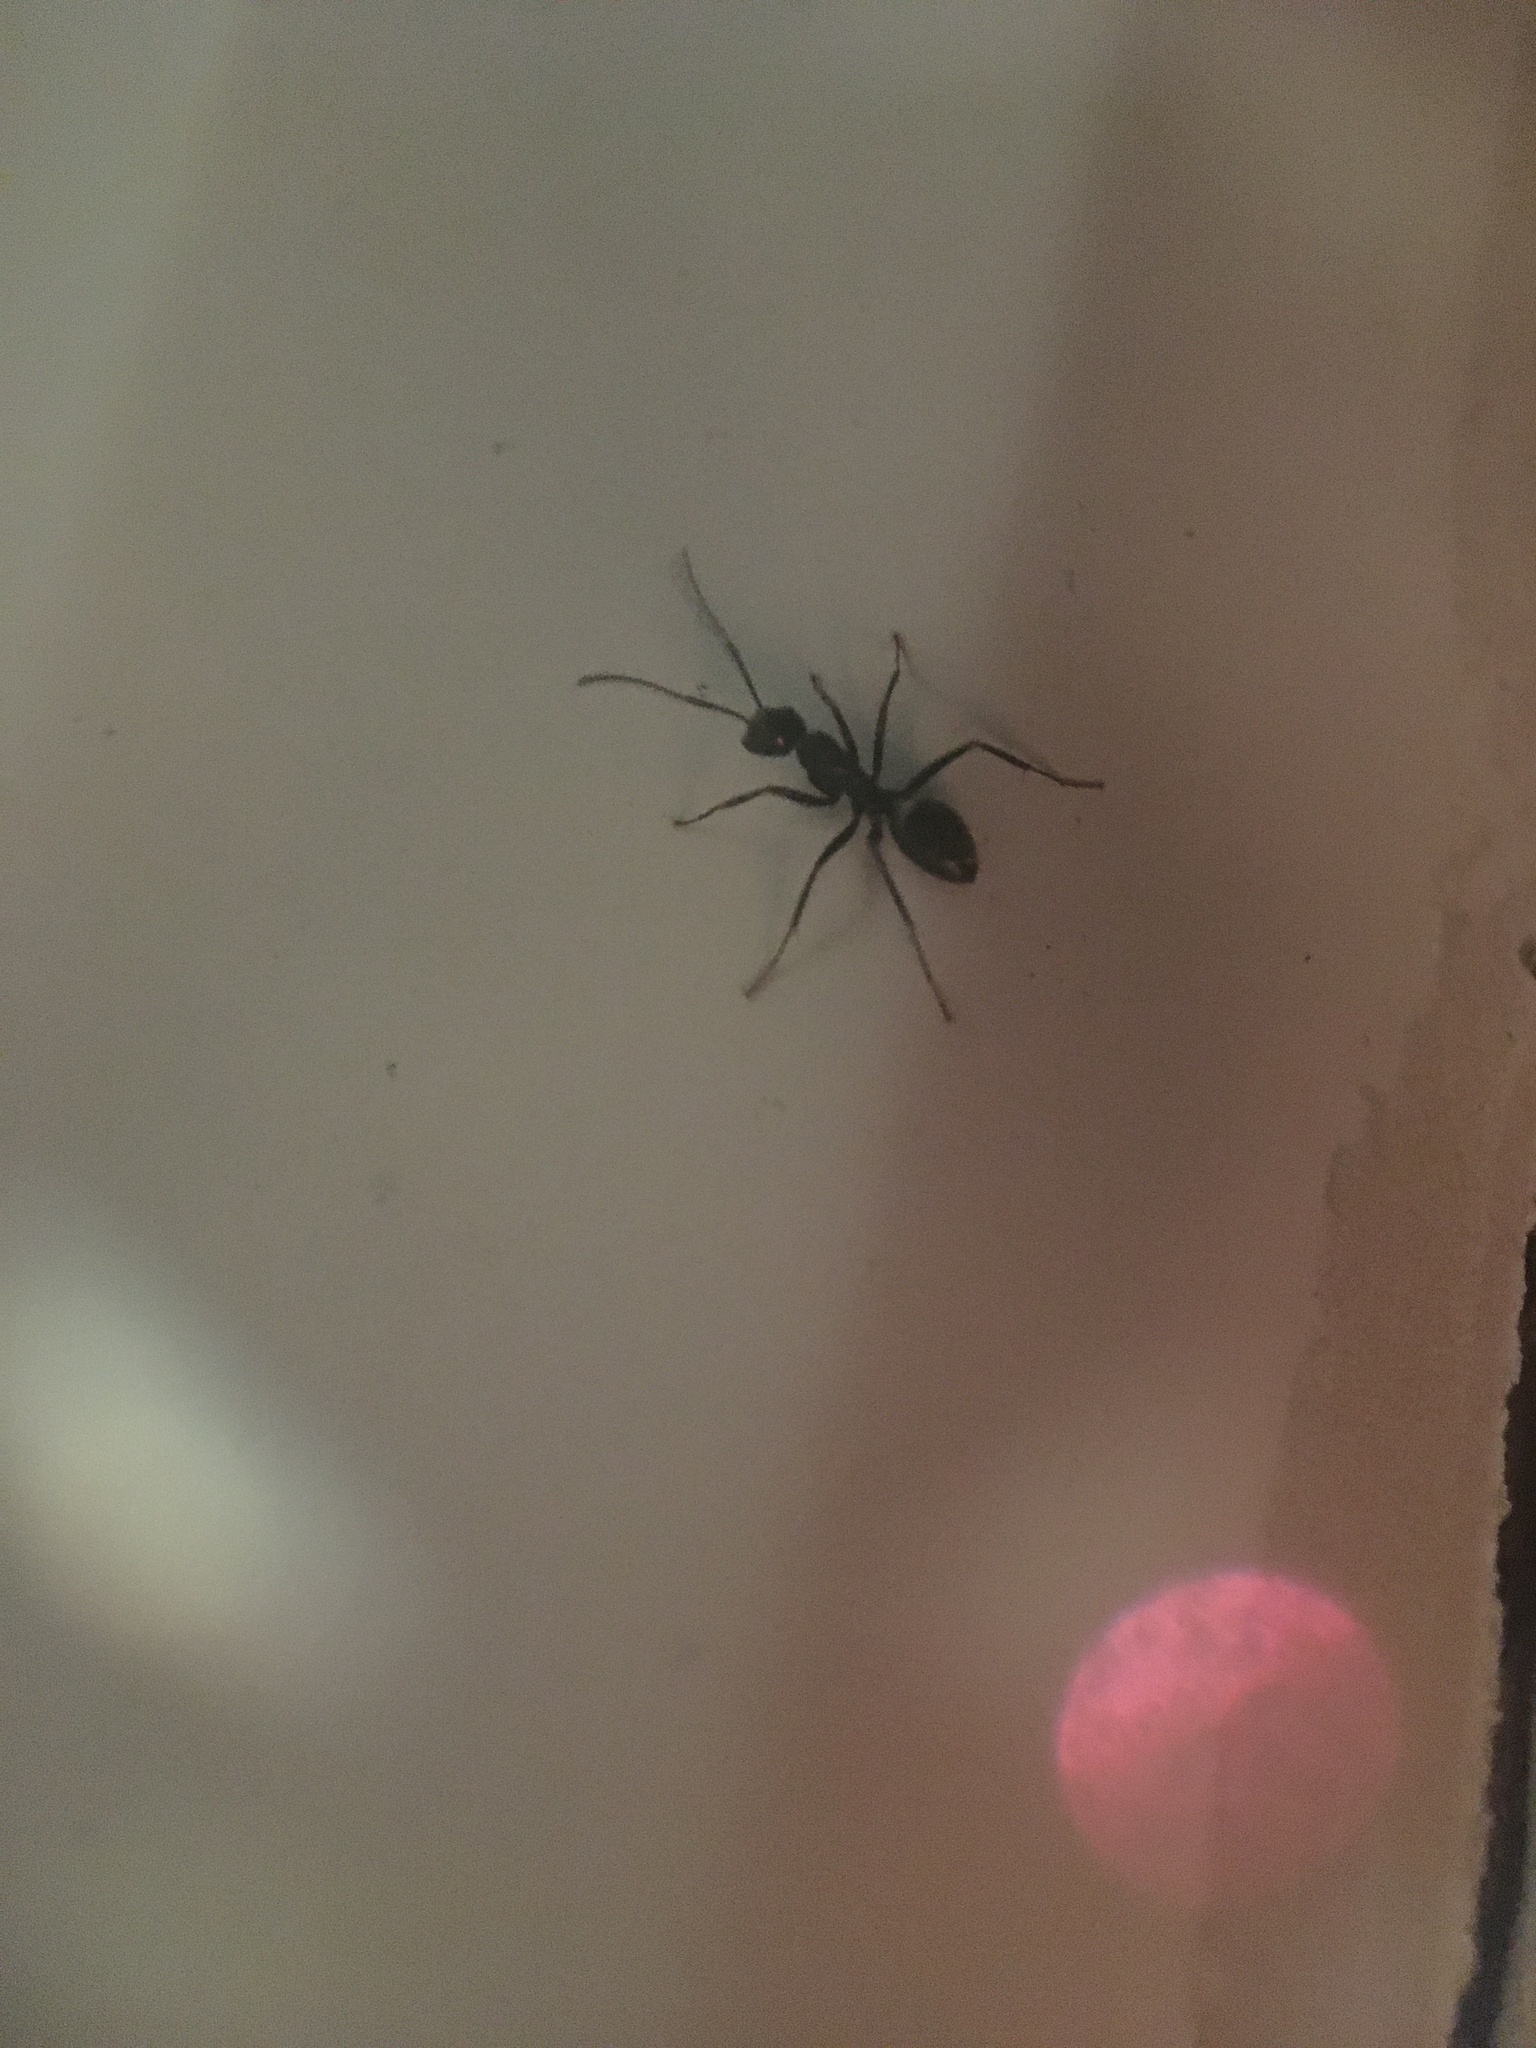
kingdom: Animalia
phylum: Arthropoda
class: Insecta
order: Hymenoptera
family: Formicidae
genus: Camponotus
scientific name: Camponotus pennsylvanicus
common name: Black carpenter ant
